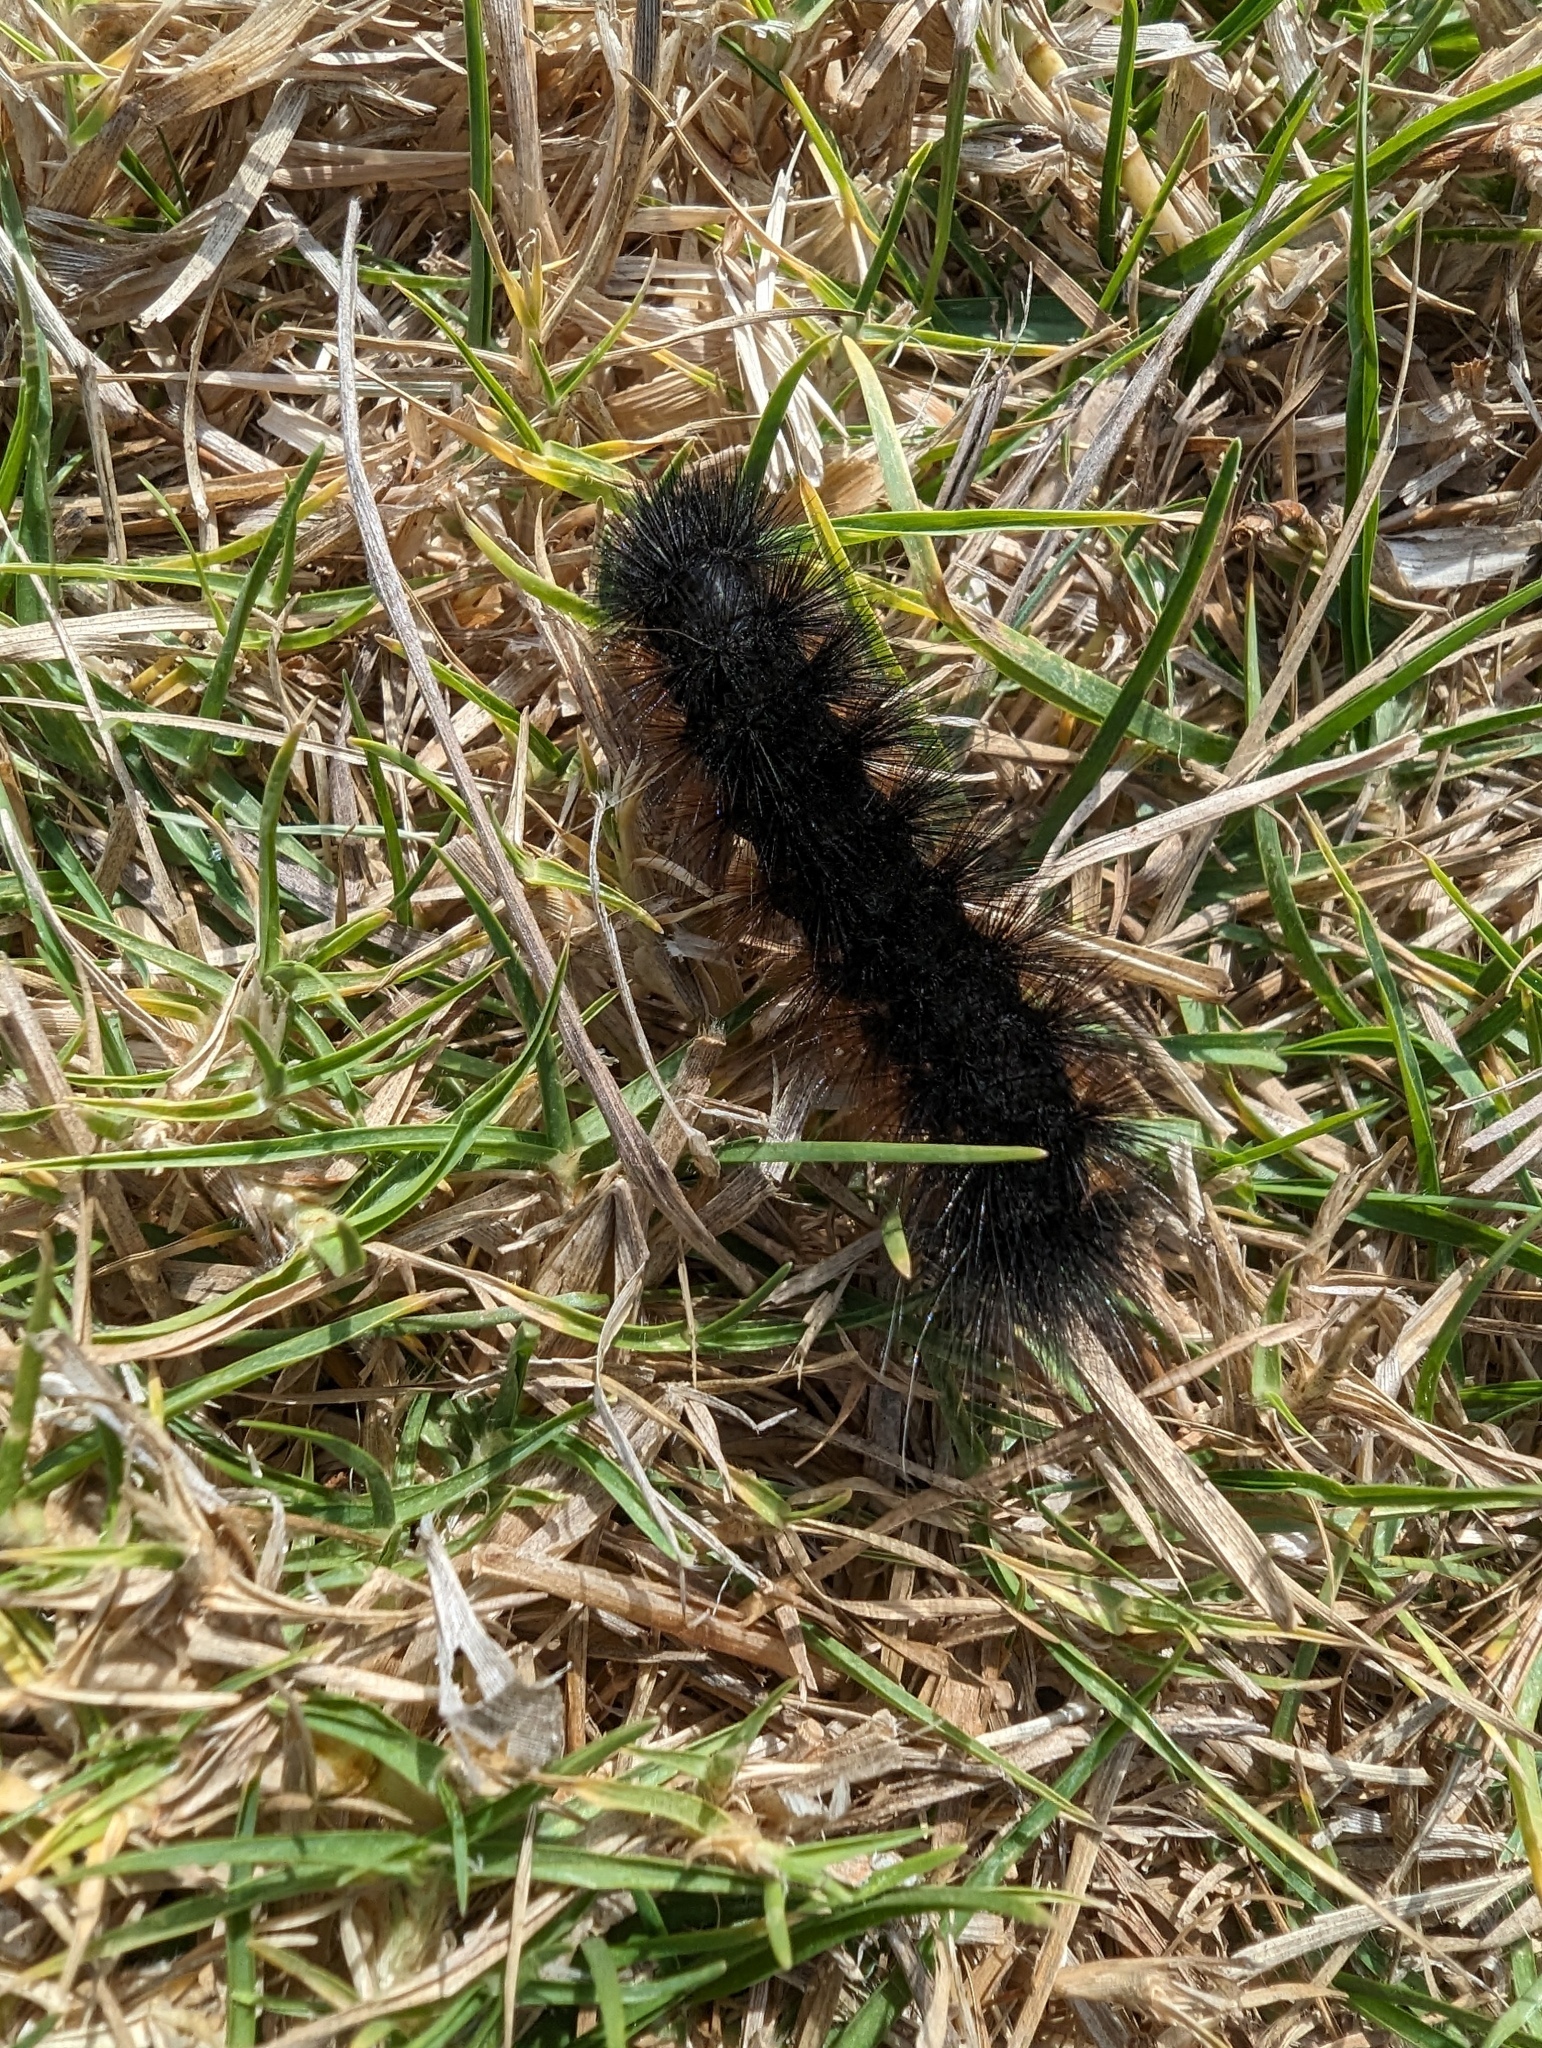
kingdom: Animalia
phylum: Arthropoda
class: Insecta
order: Lepidoptera
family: Erebidae
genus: Estigmene
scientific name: Estigmene acrea
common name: Salt marsh moth
